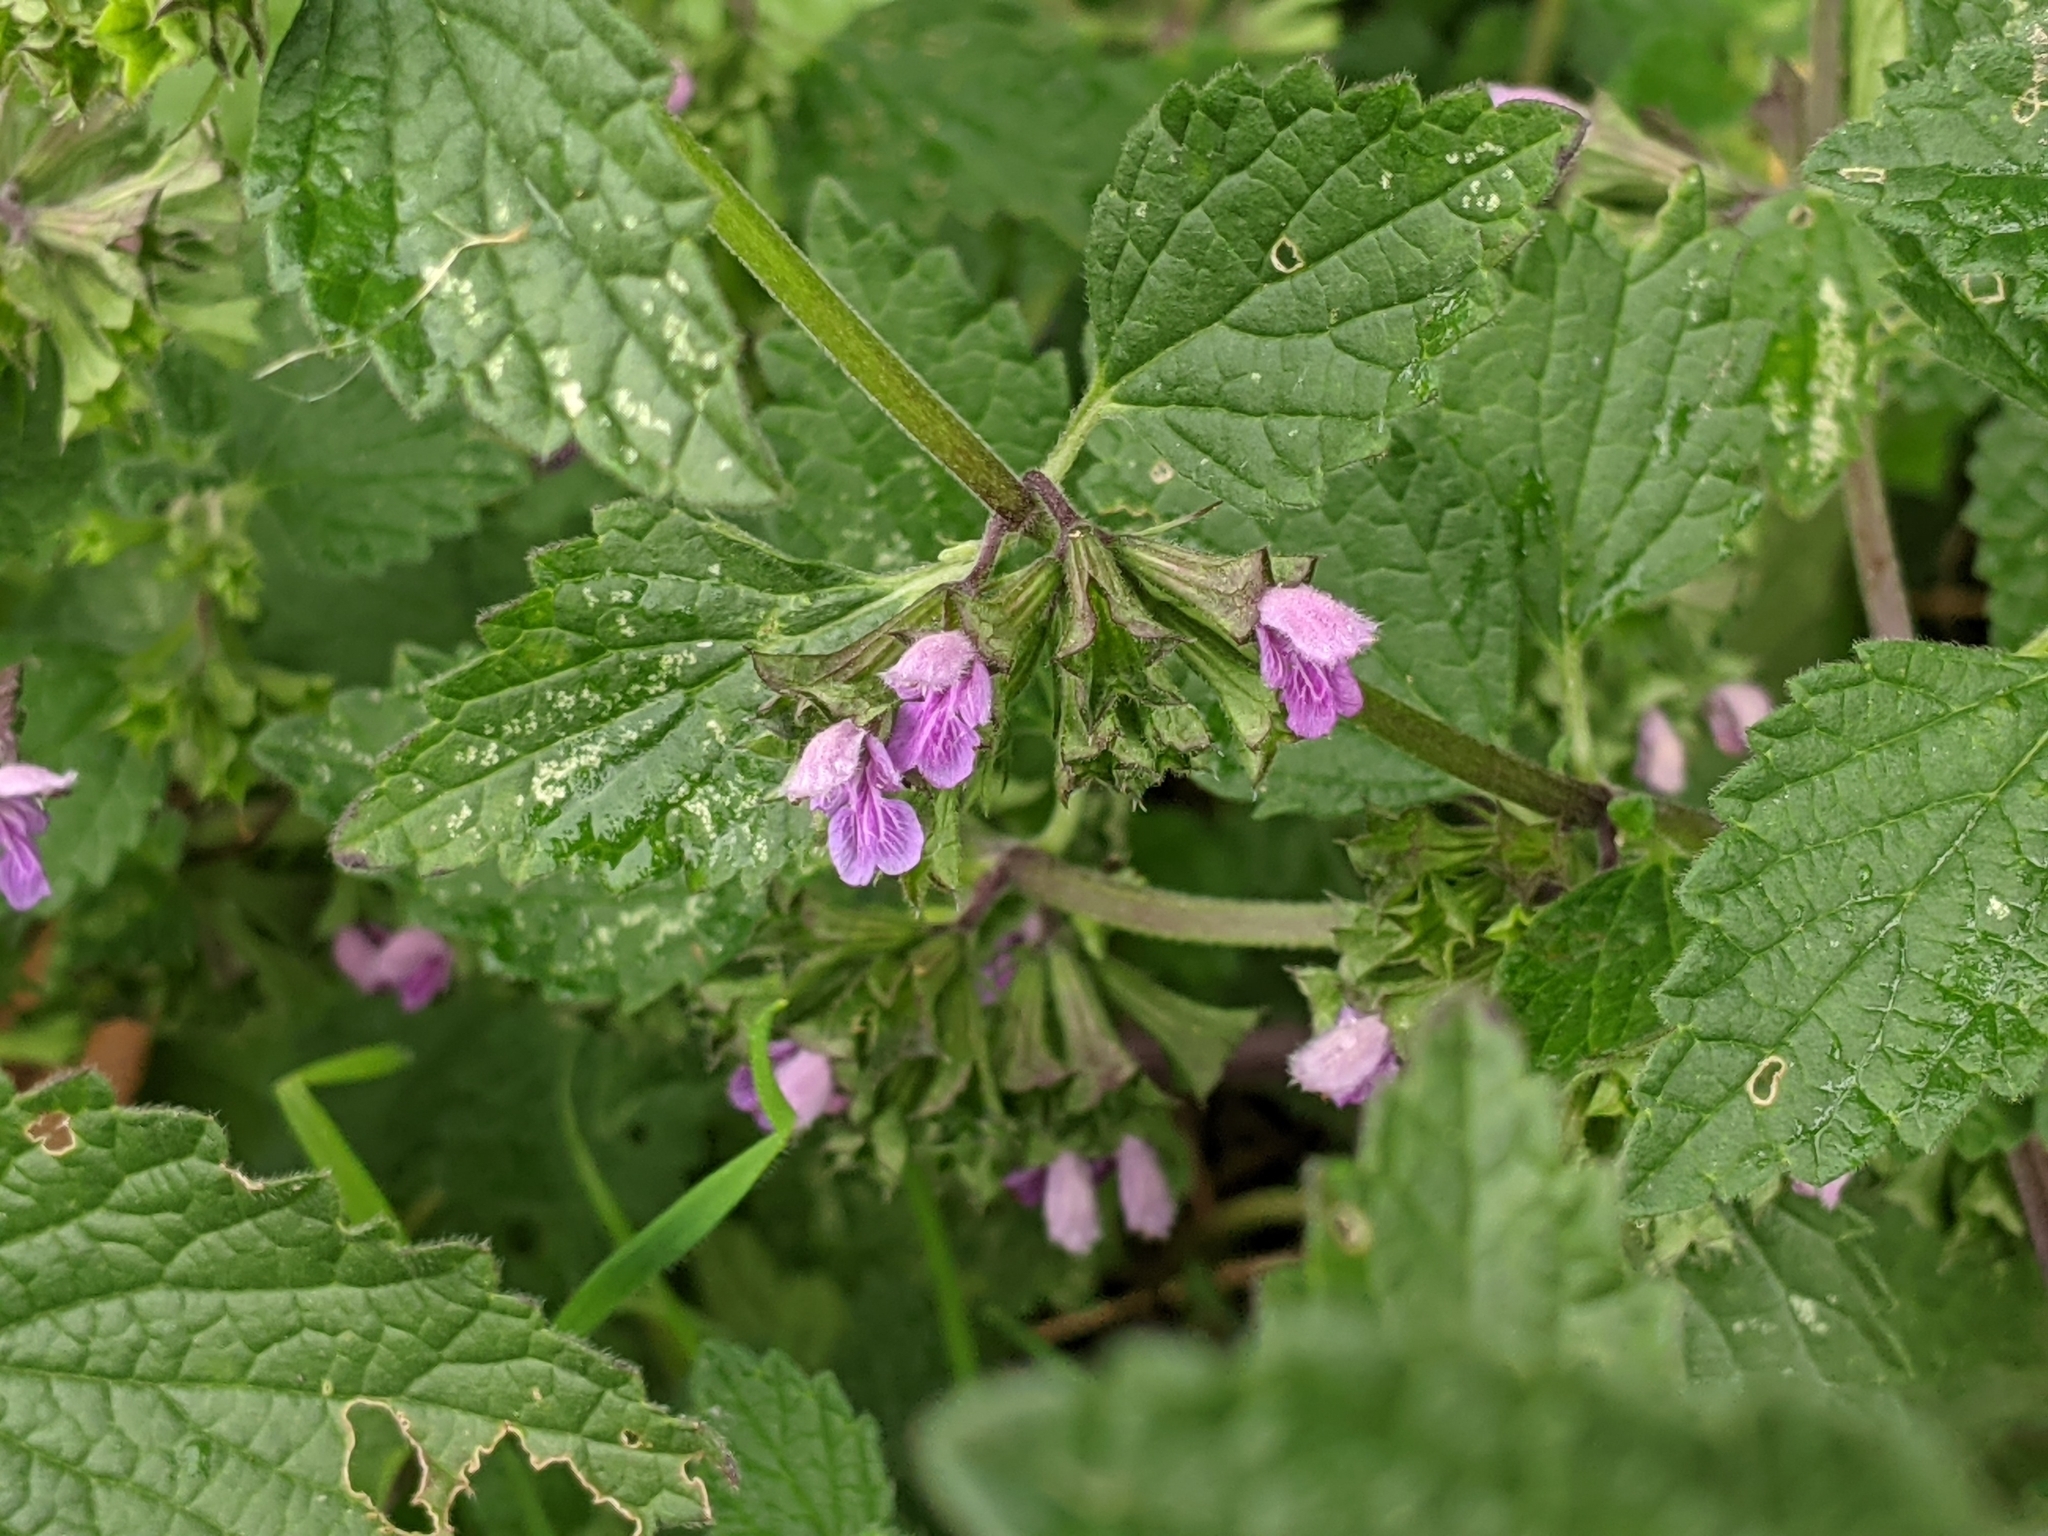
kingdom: Plantae
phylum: Tracheophyta
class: Magnoliopsida
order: Lamiales
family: Lamiaceae
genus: Ballota
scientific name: Ballota nigra
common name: Black horehound
